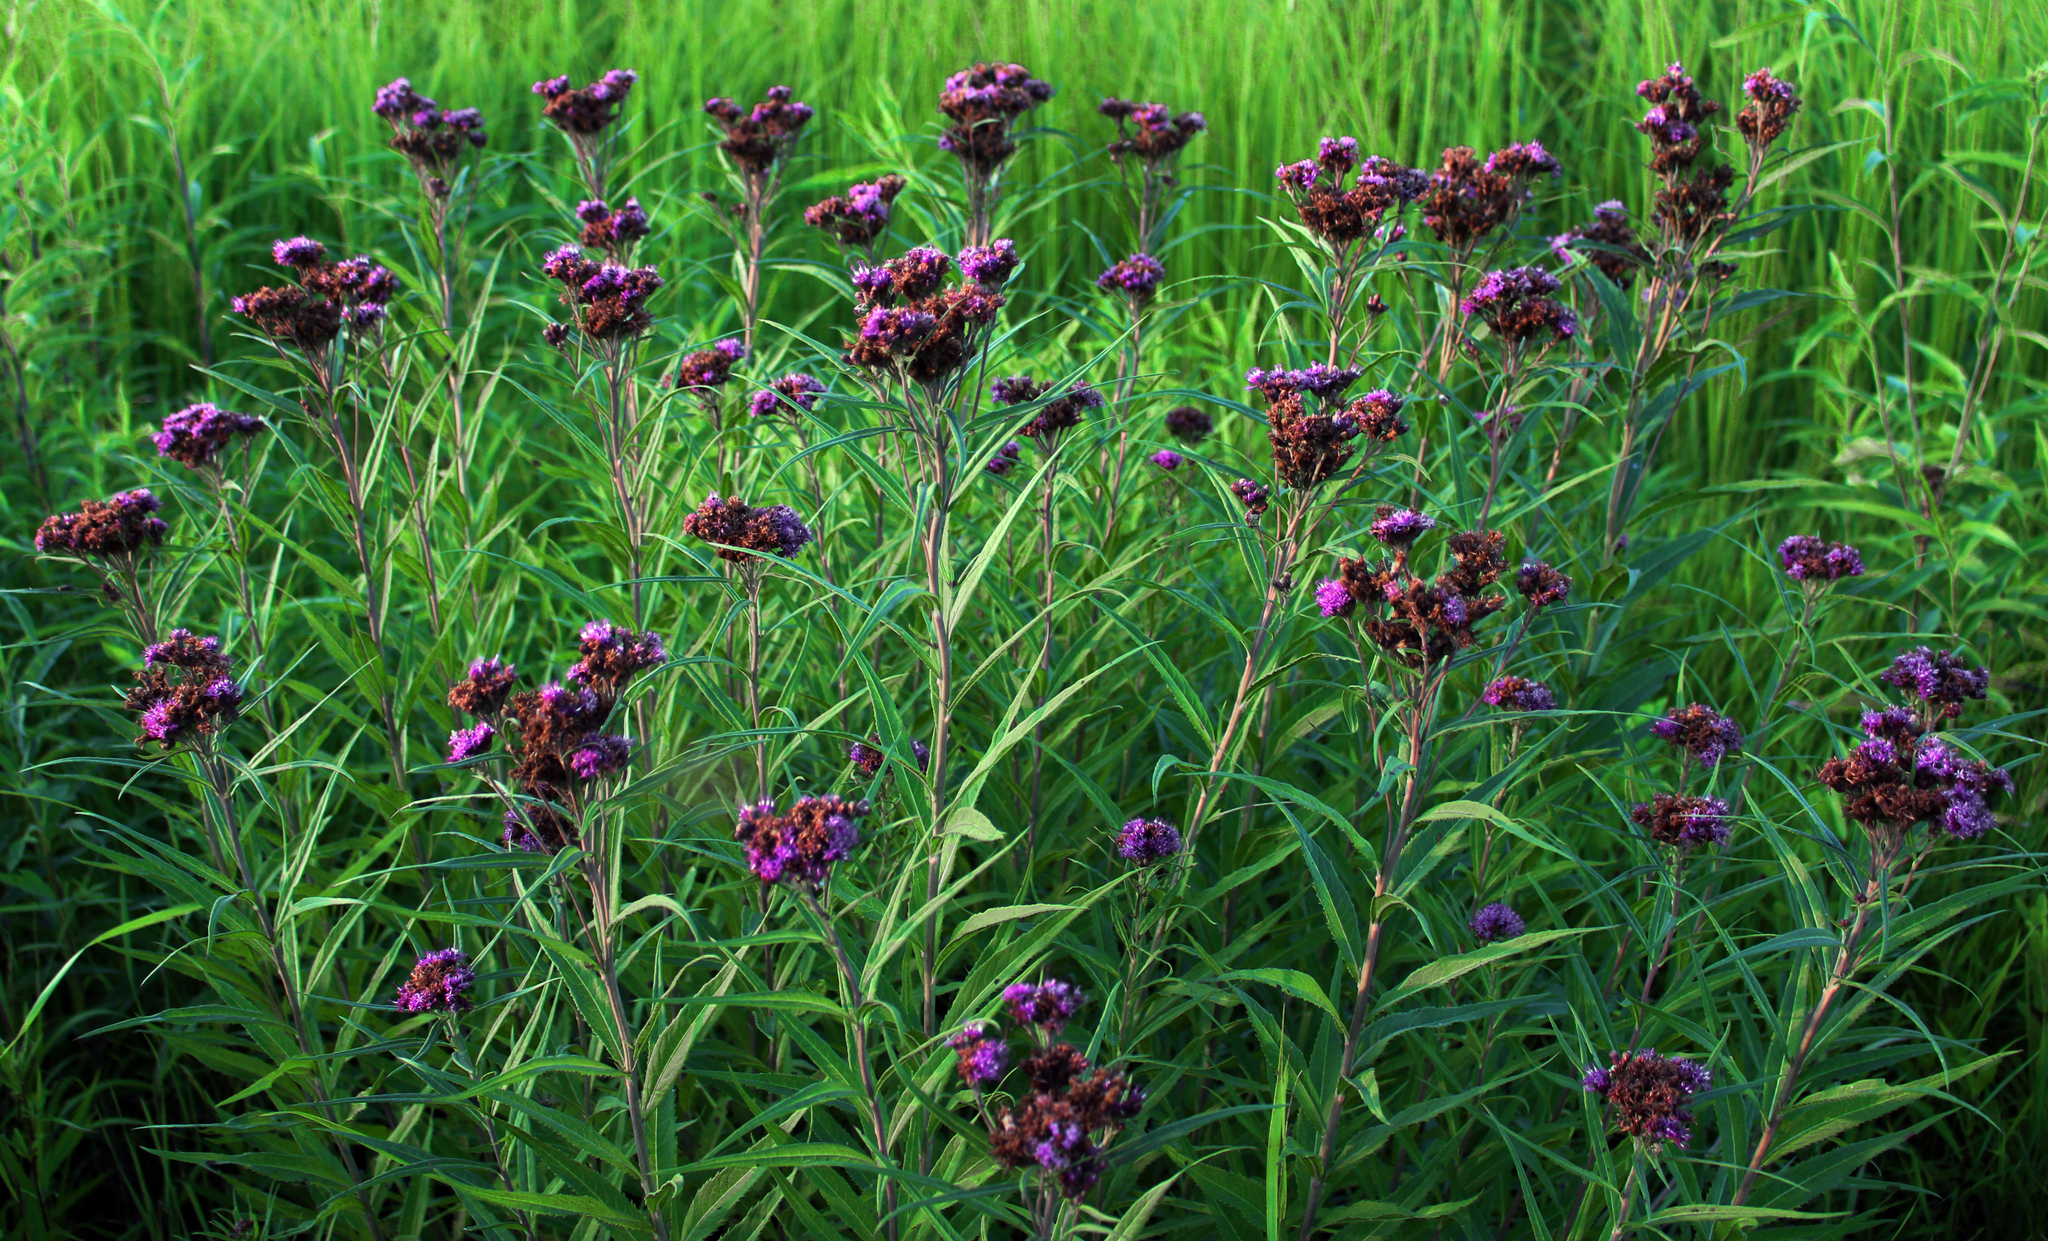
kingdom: Plantae
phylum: Tracheophyta
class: Magnoliopsida
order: Asterales
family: Asteraceae
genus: Vernonia
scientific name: Vernonia fasciculata
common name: Fascicled ironweed
